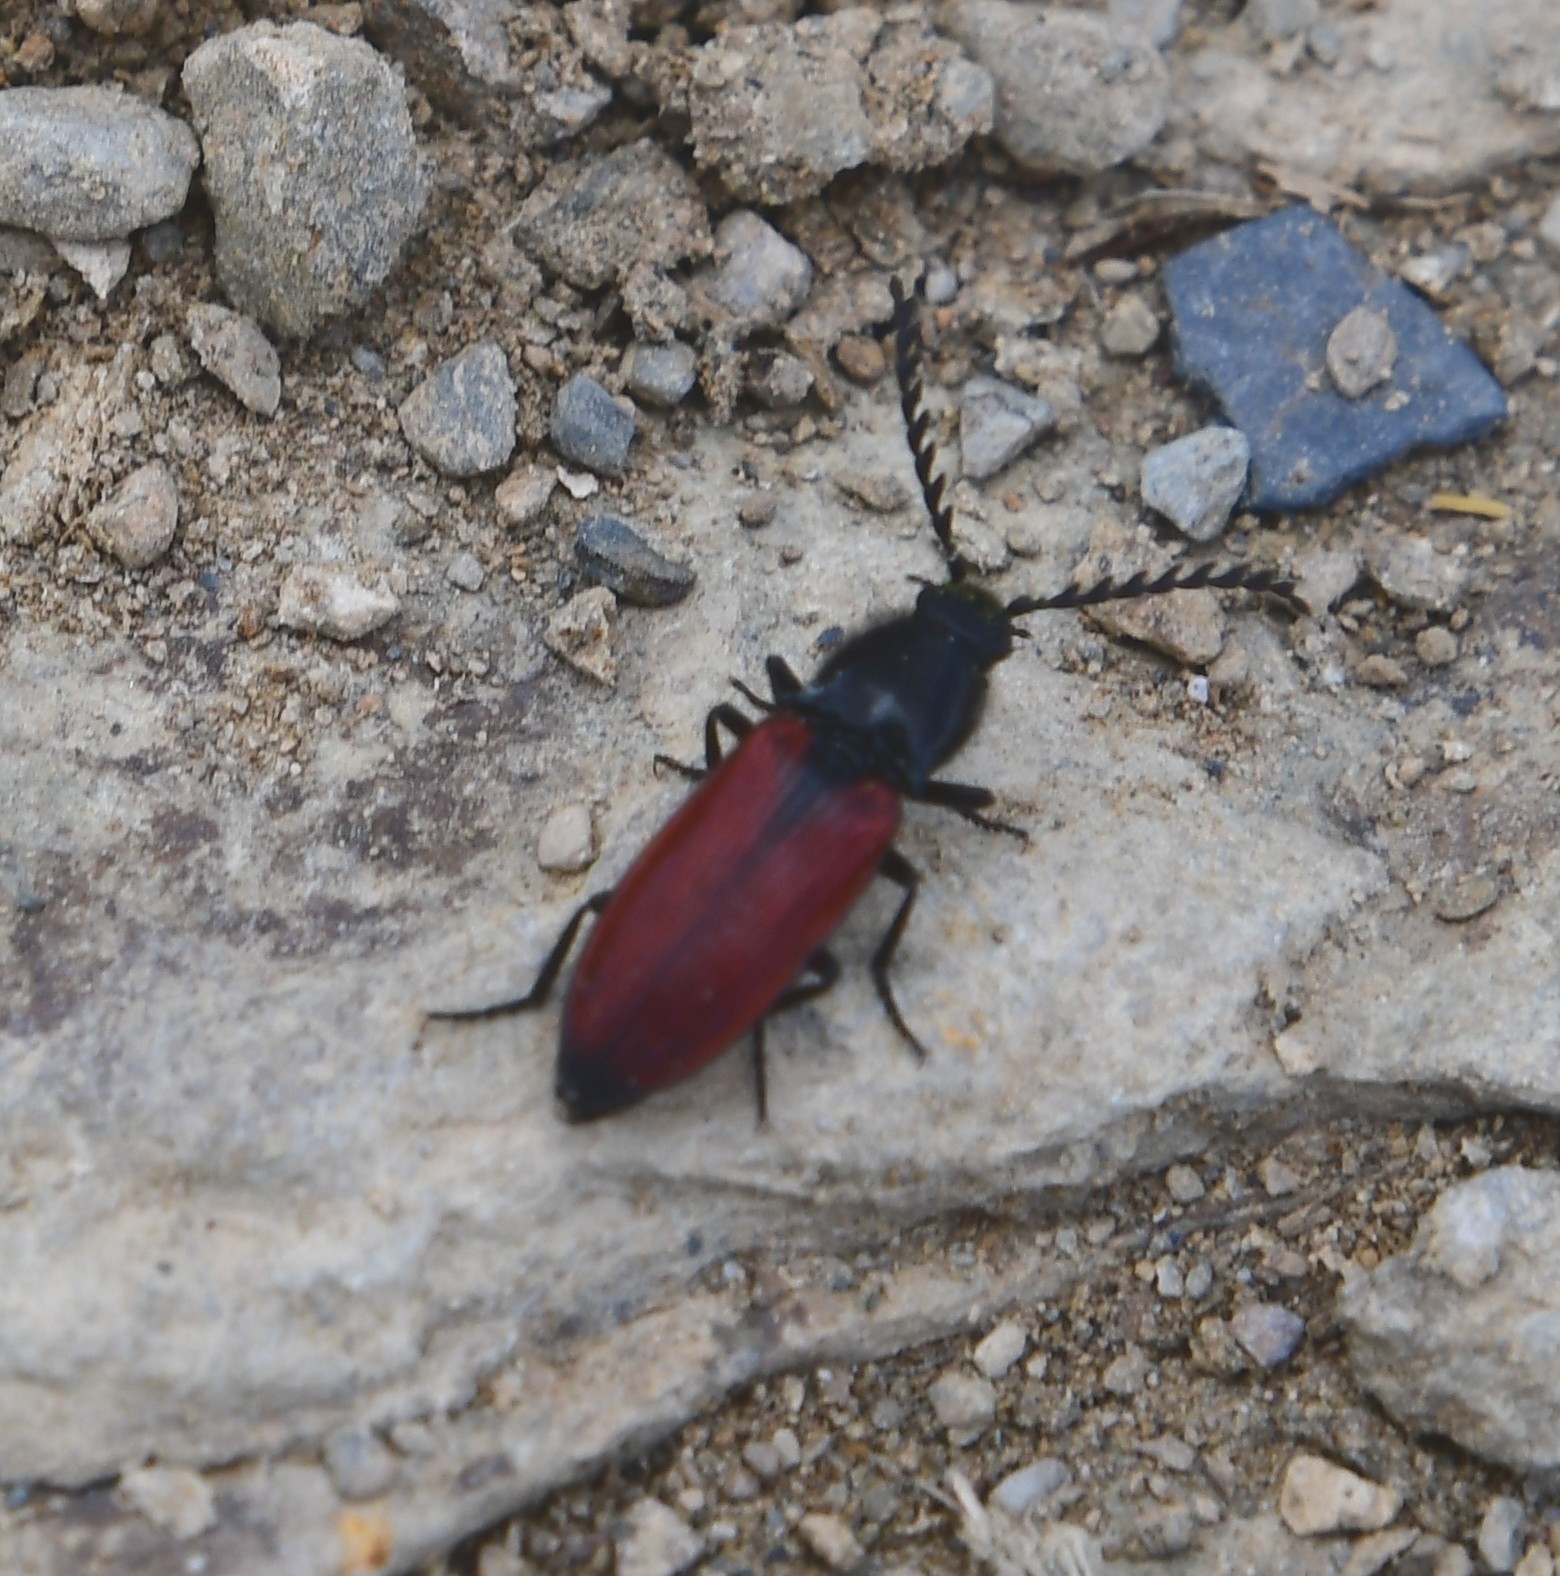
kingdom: Animalia
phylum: Arthropoda
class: Insecta
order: Coleoptera
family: Elateridae
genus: Anostirus
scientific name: Anostirus eschscholtzi
